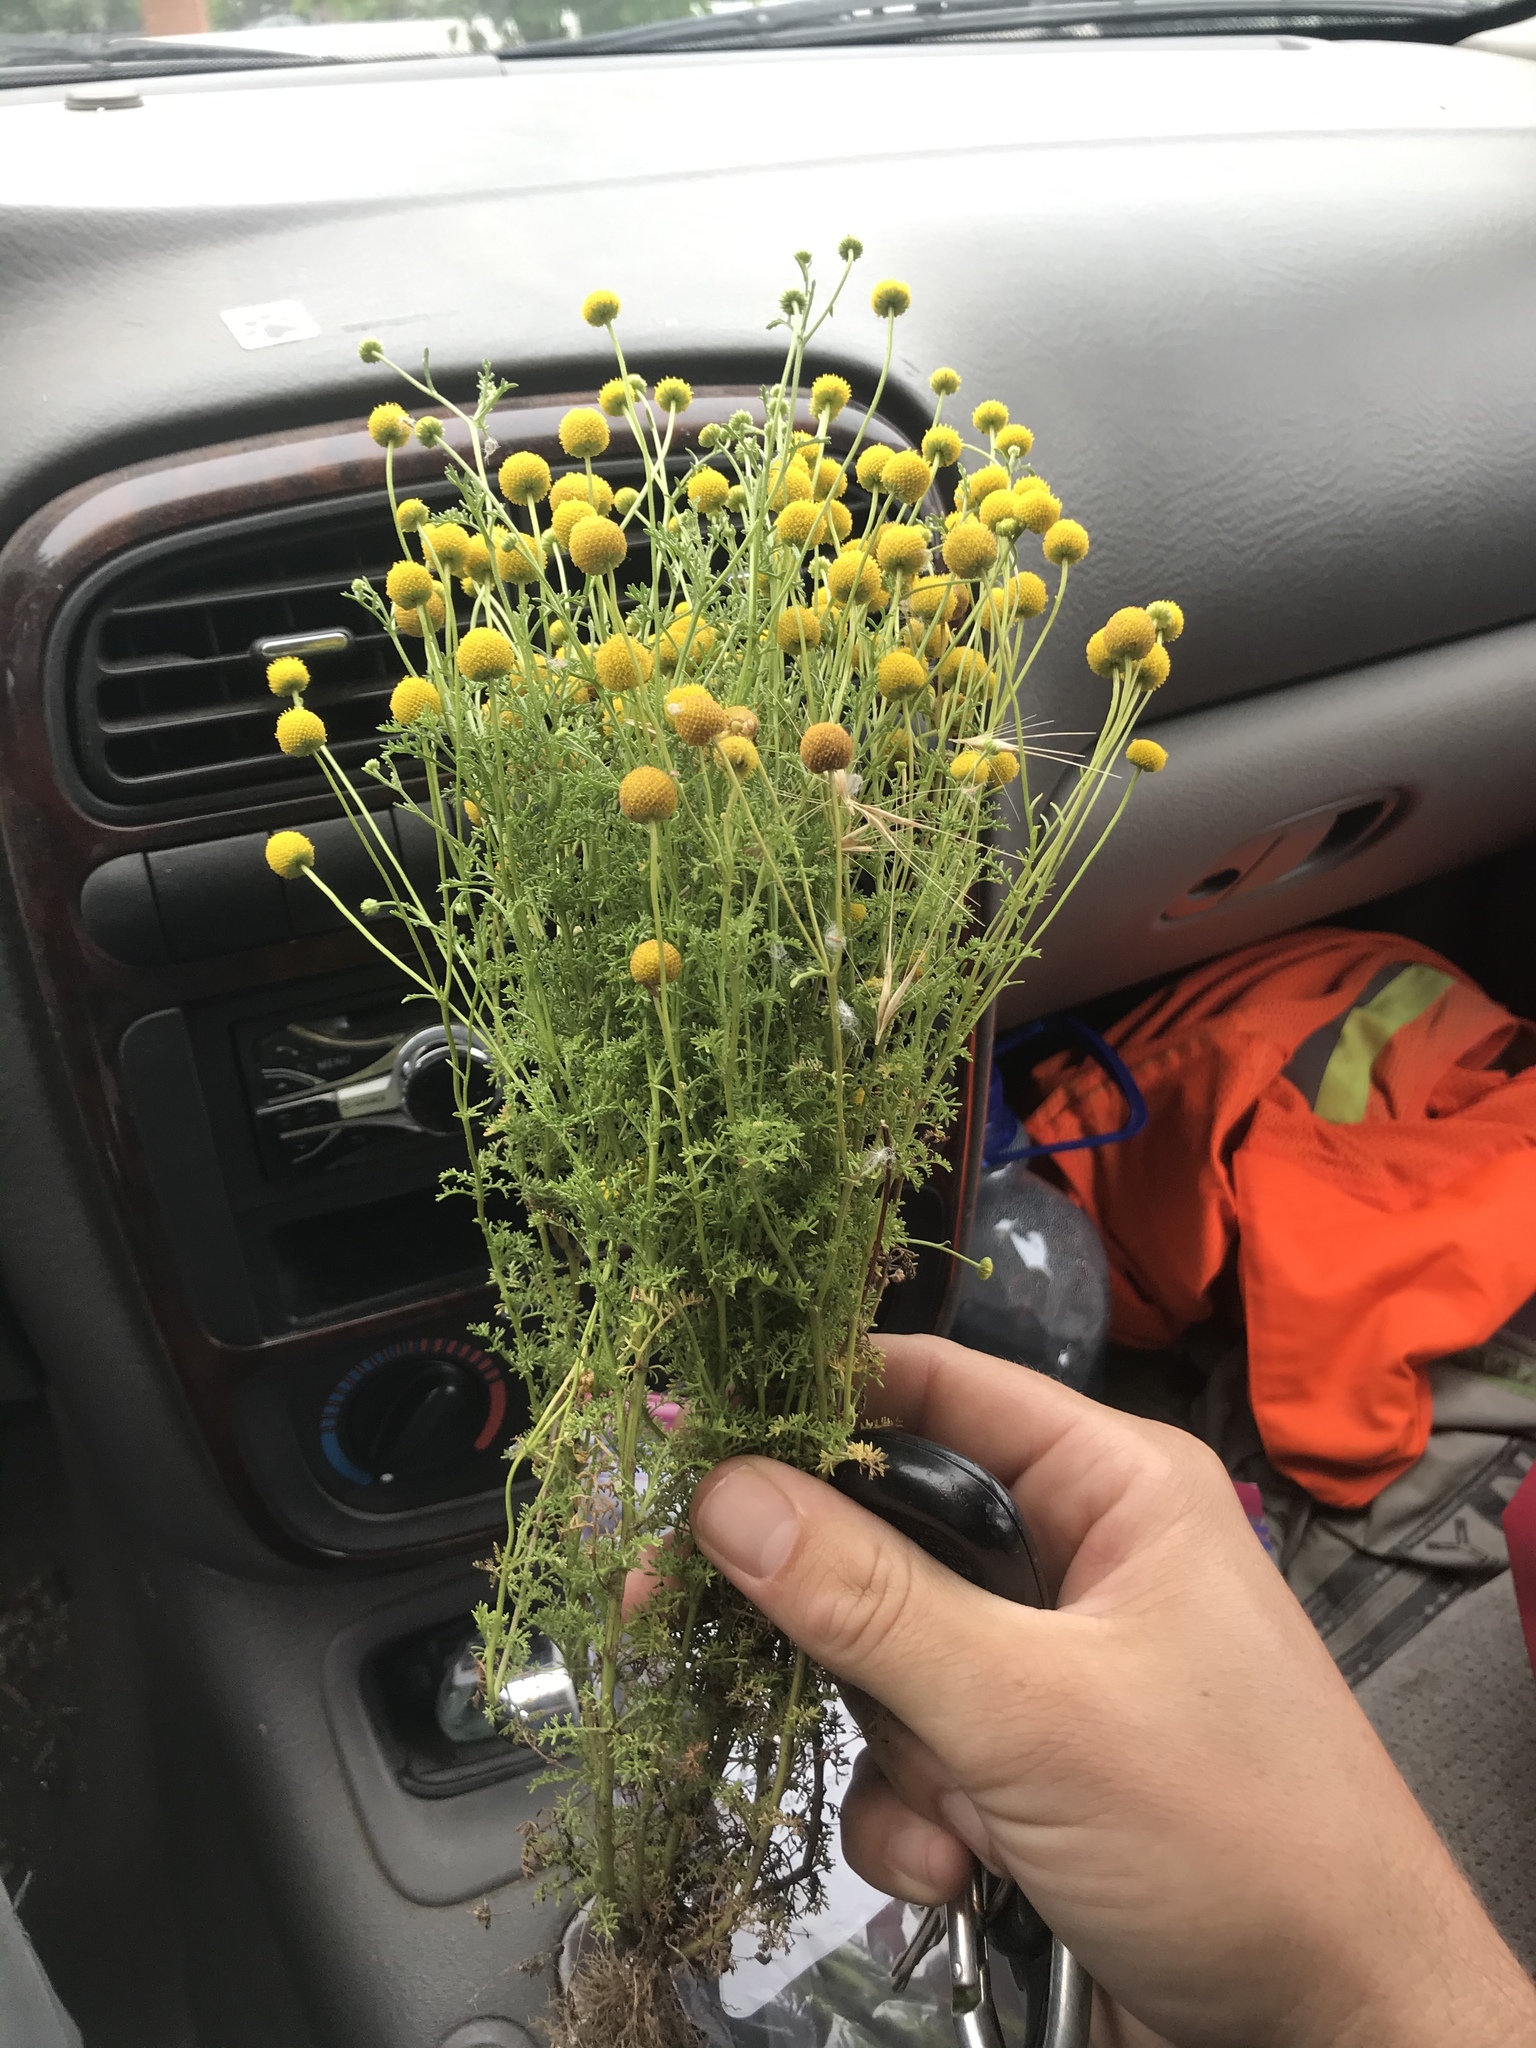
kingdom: Plantae
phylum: Tracheophyta
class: Magnoliopsida
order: Asterales
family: Asteraceae
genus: Oncosiphon
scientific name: Oncosiphon pilulifer
